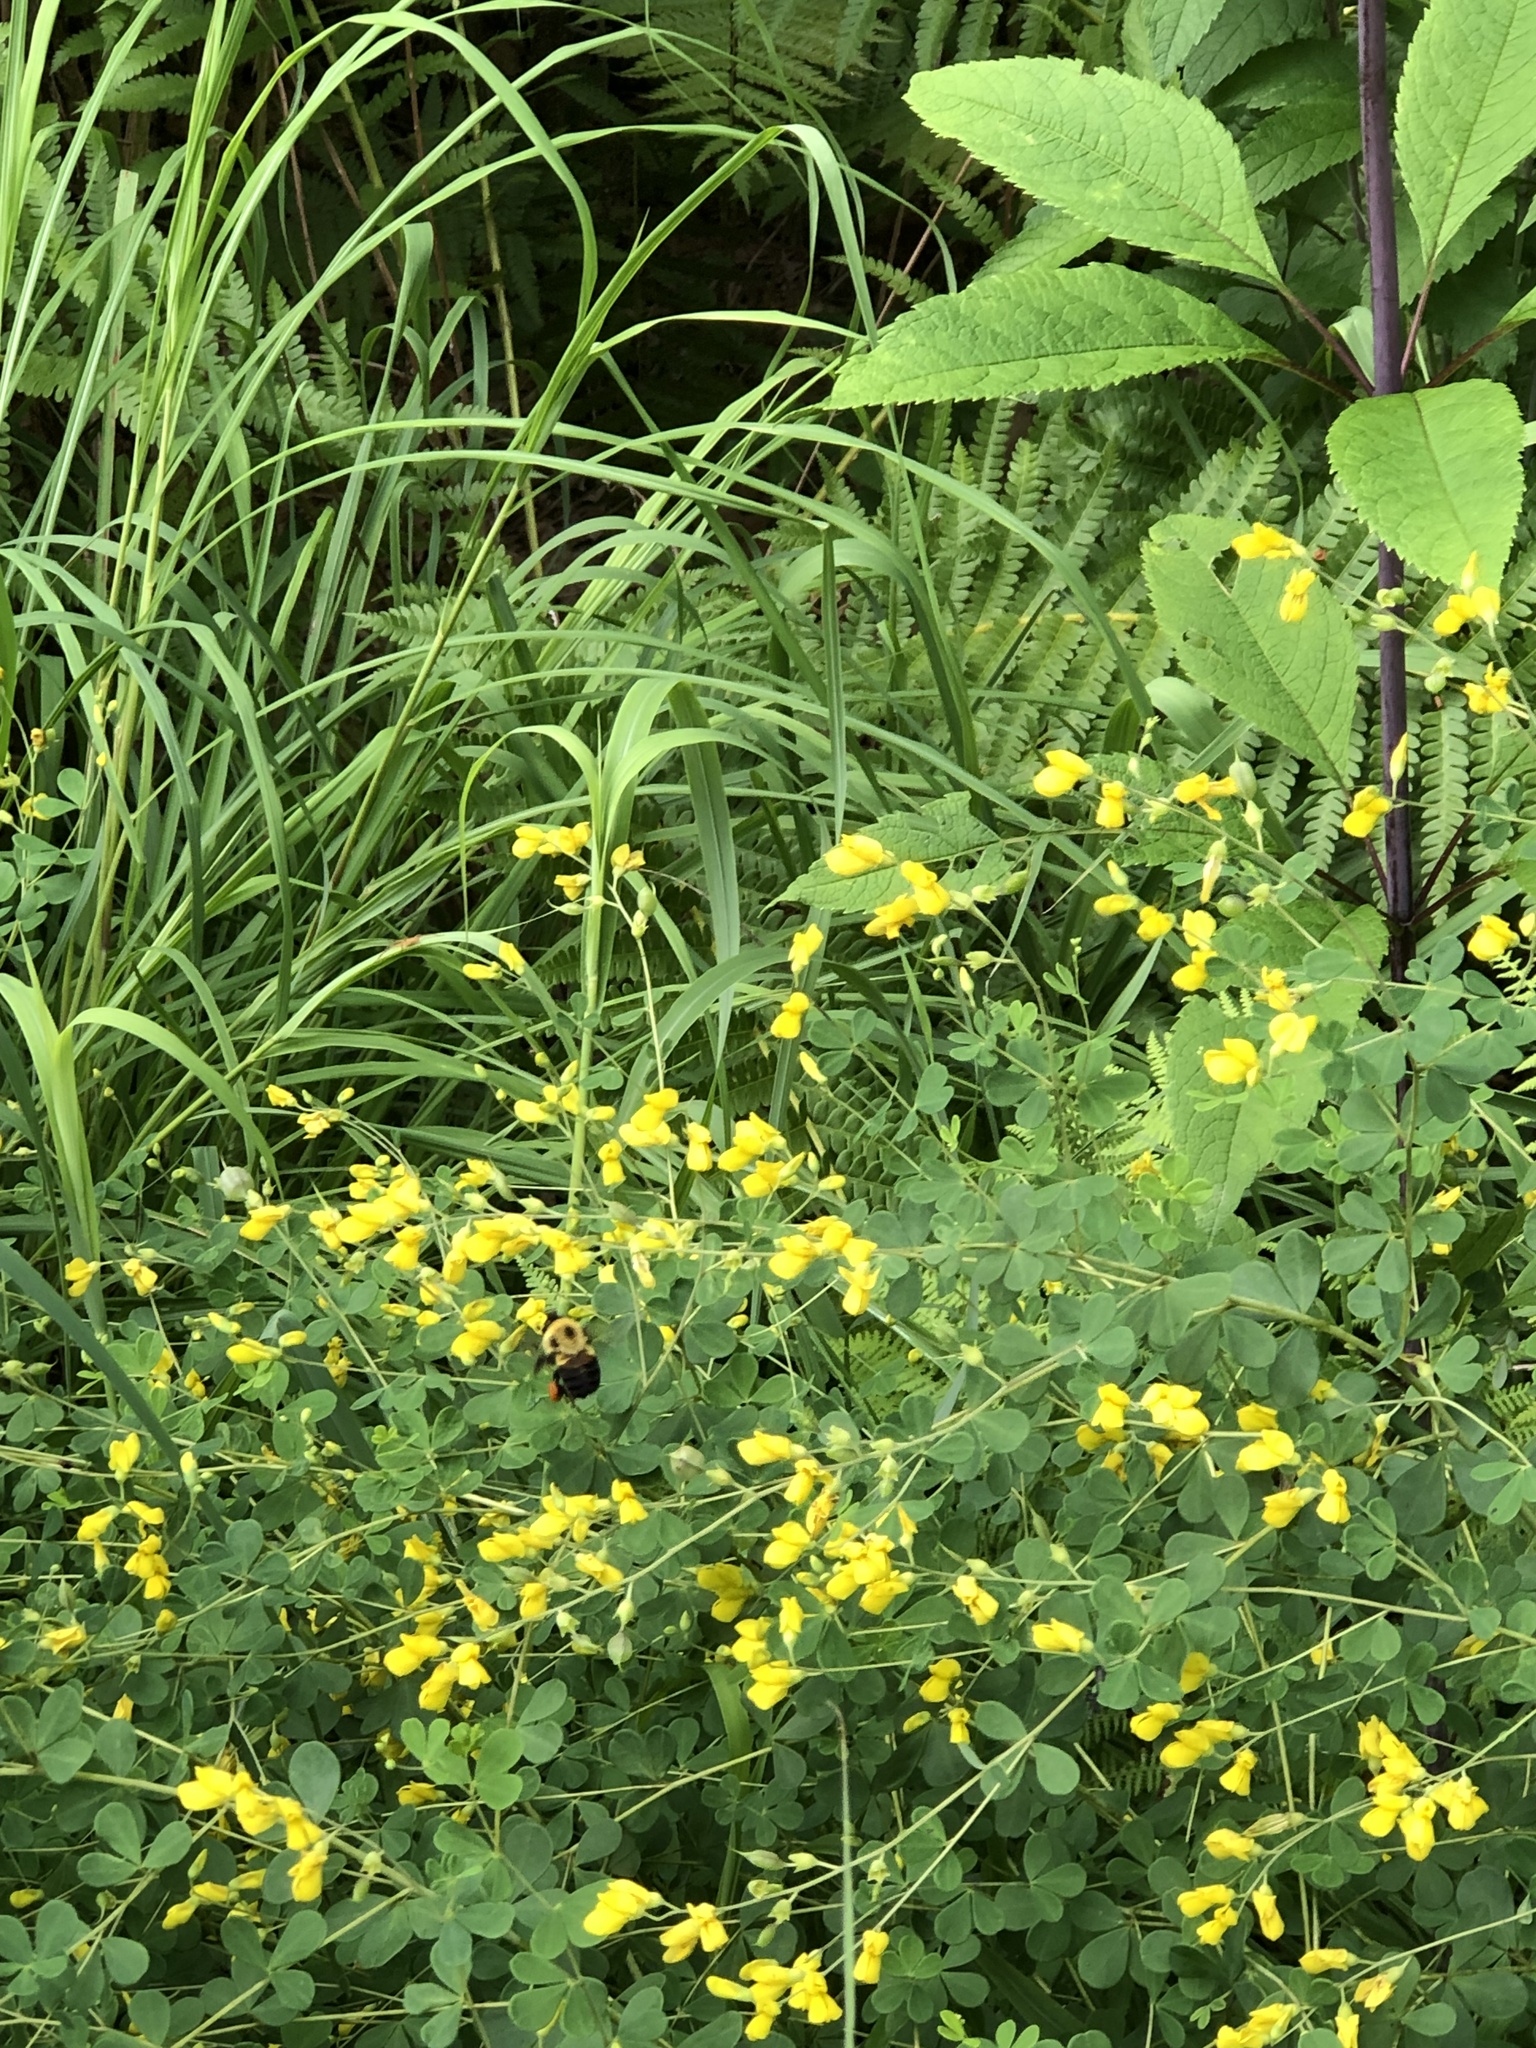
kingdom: Animalia
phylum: Arthropoda
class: Insecta
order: Hymenoptera
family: Apidae
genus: Bombus
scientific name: Bombus griseocollis
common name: Brown-belted bumble bee
